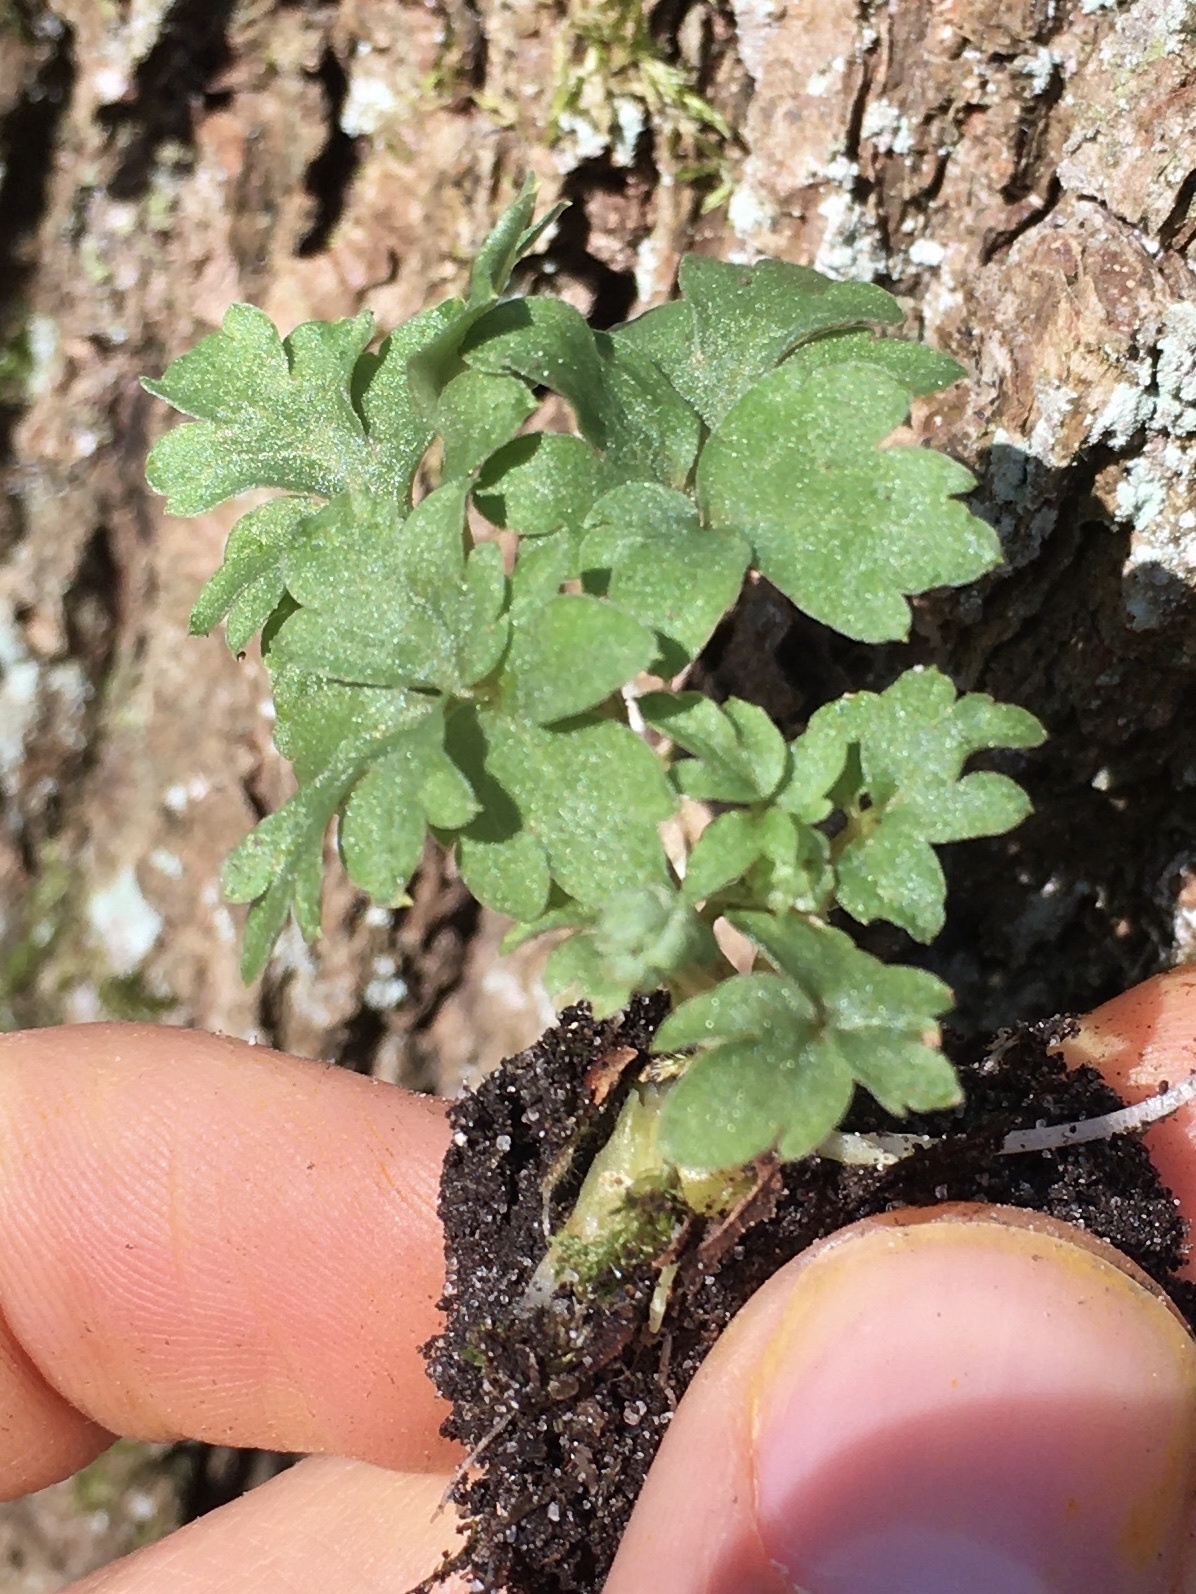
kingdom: Plantae
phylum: Tracheophyta
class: Magnoliopsida
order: Dipsacales
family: Viburnaceae
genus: Adoxa
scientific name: Adoxa moschatellina
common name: Moschatel
